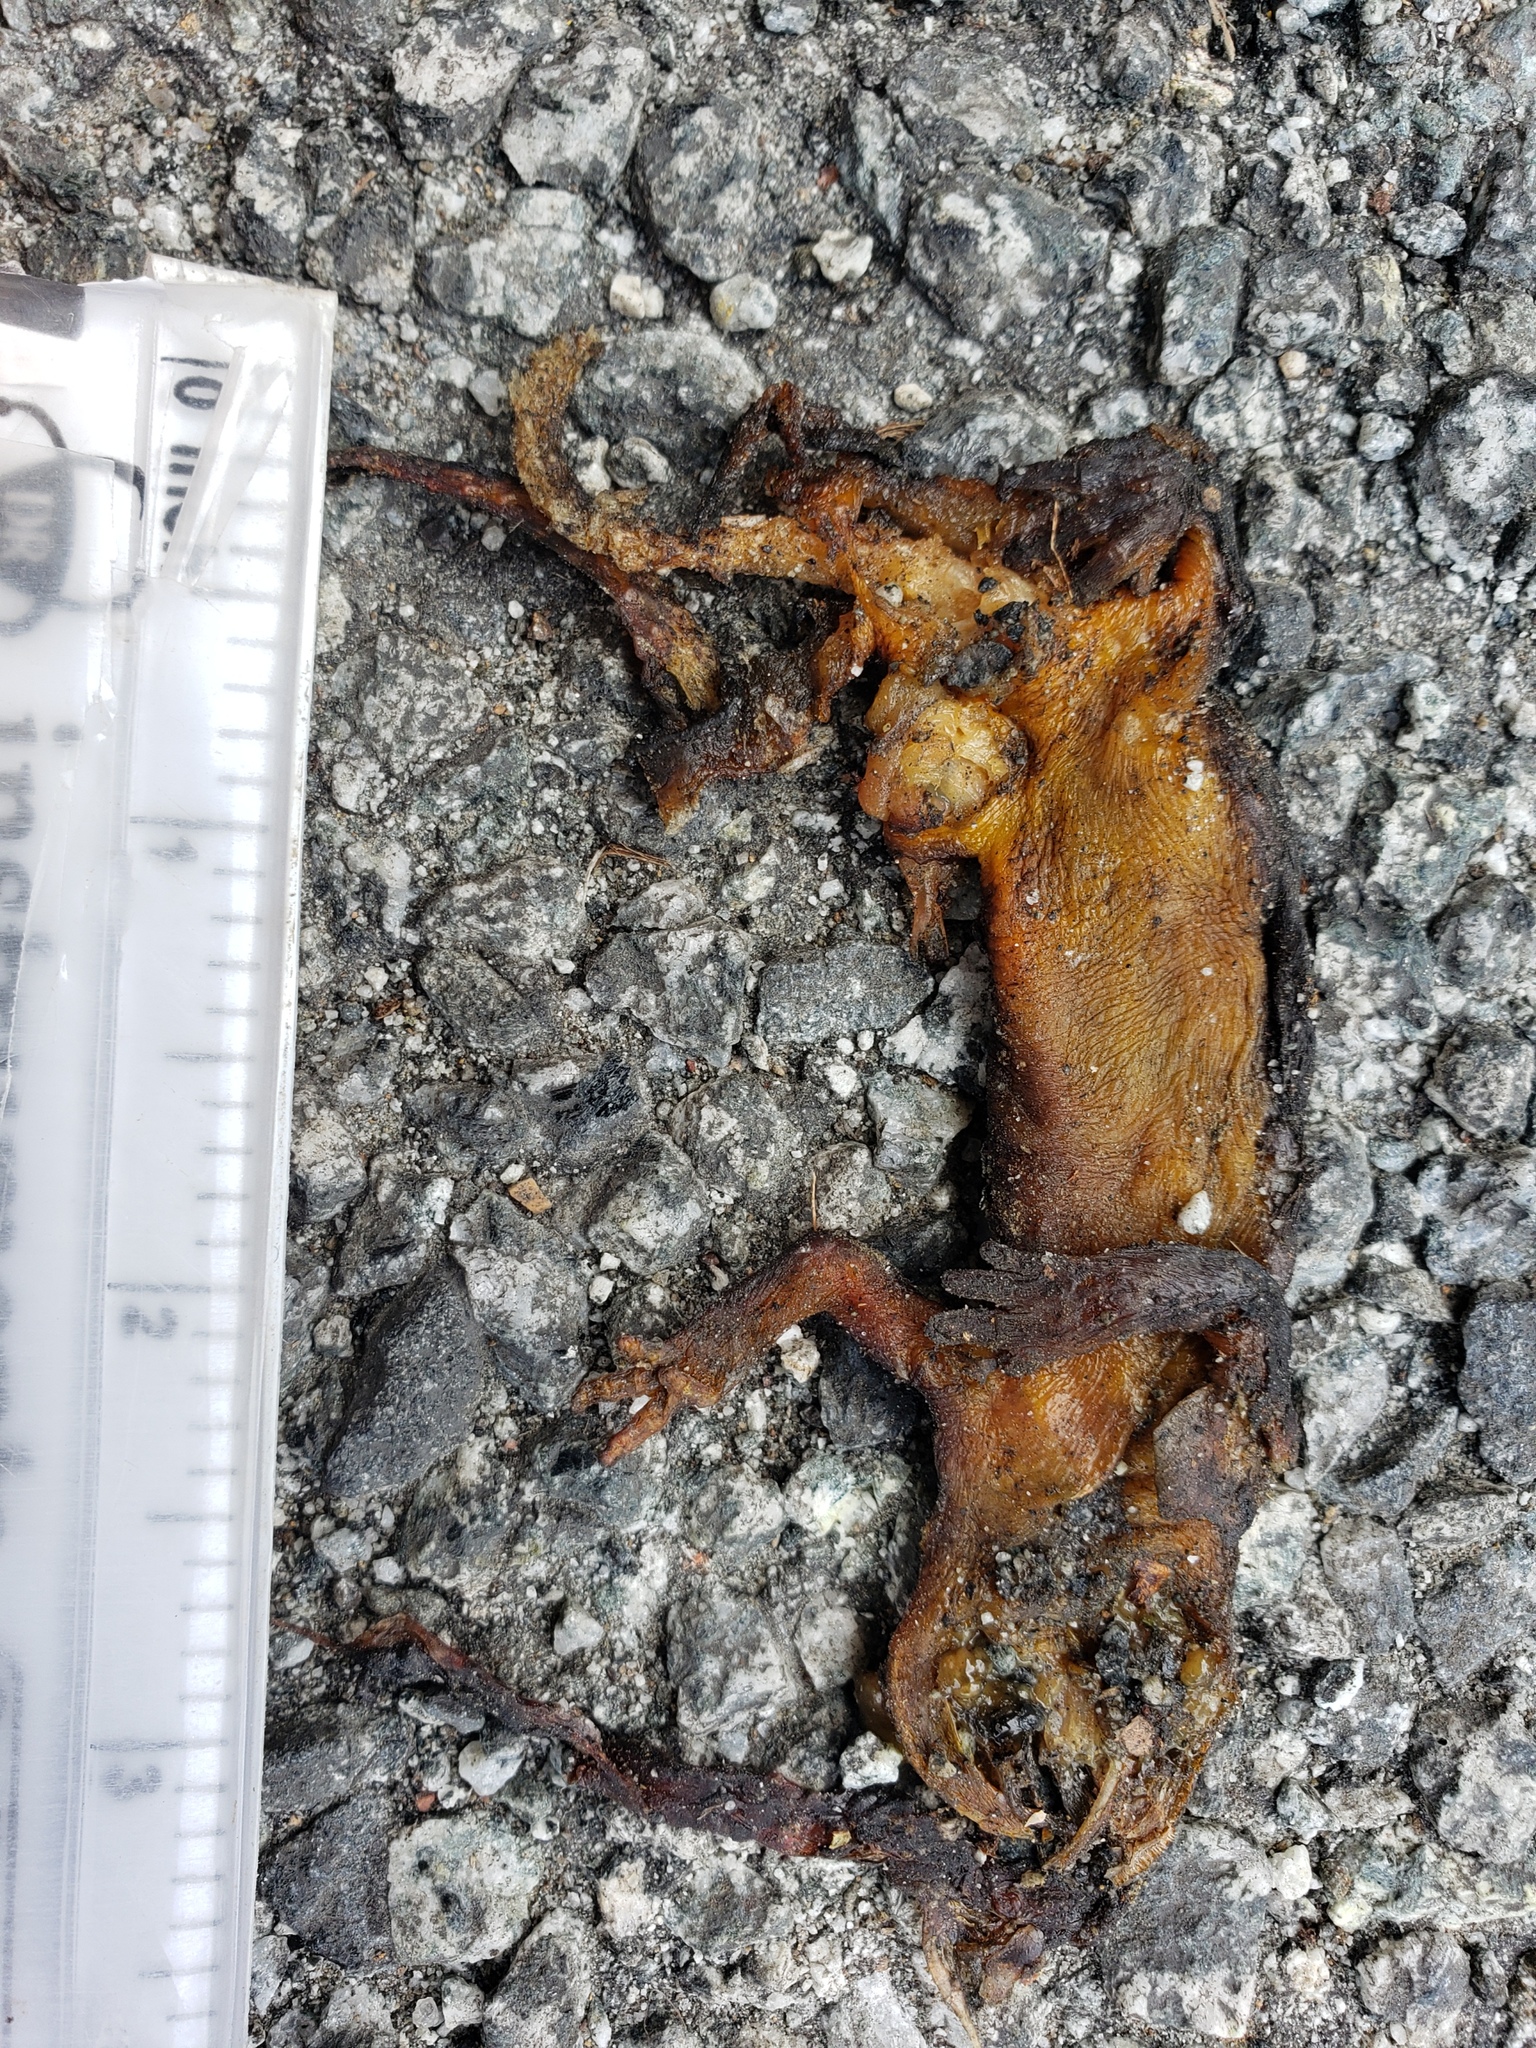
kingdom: Animalia
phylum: Chordata
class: Amphibia
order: Caudata
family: Salamandridae
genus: Taricha
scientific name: Taricha
